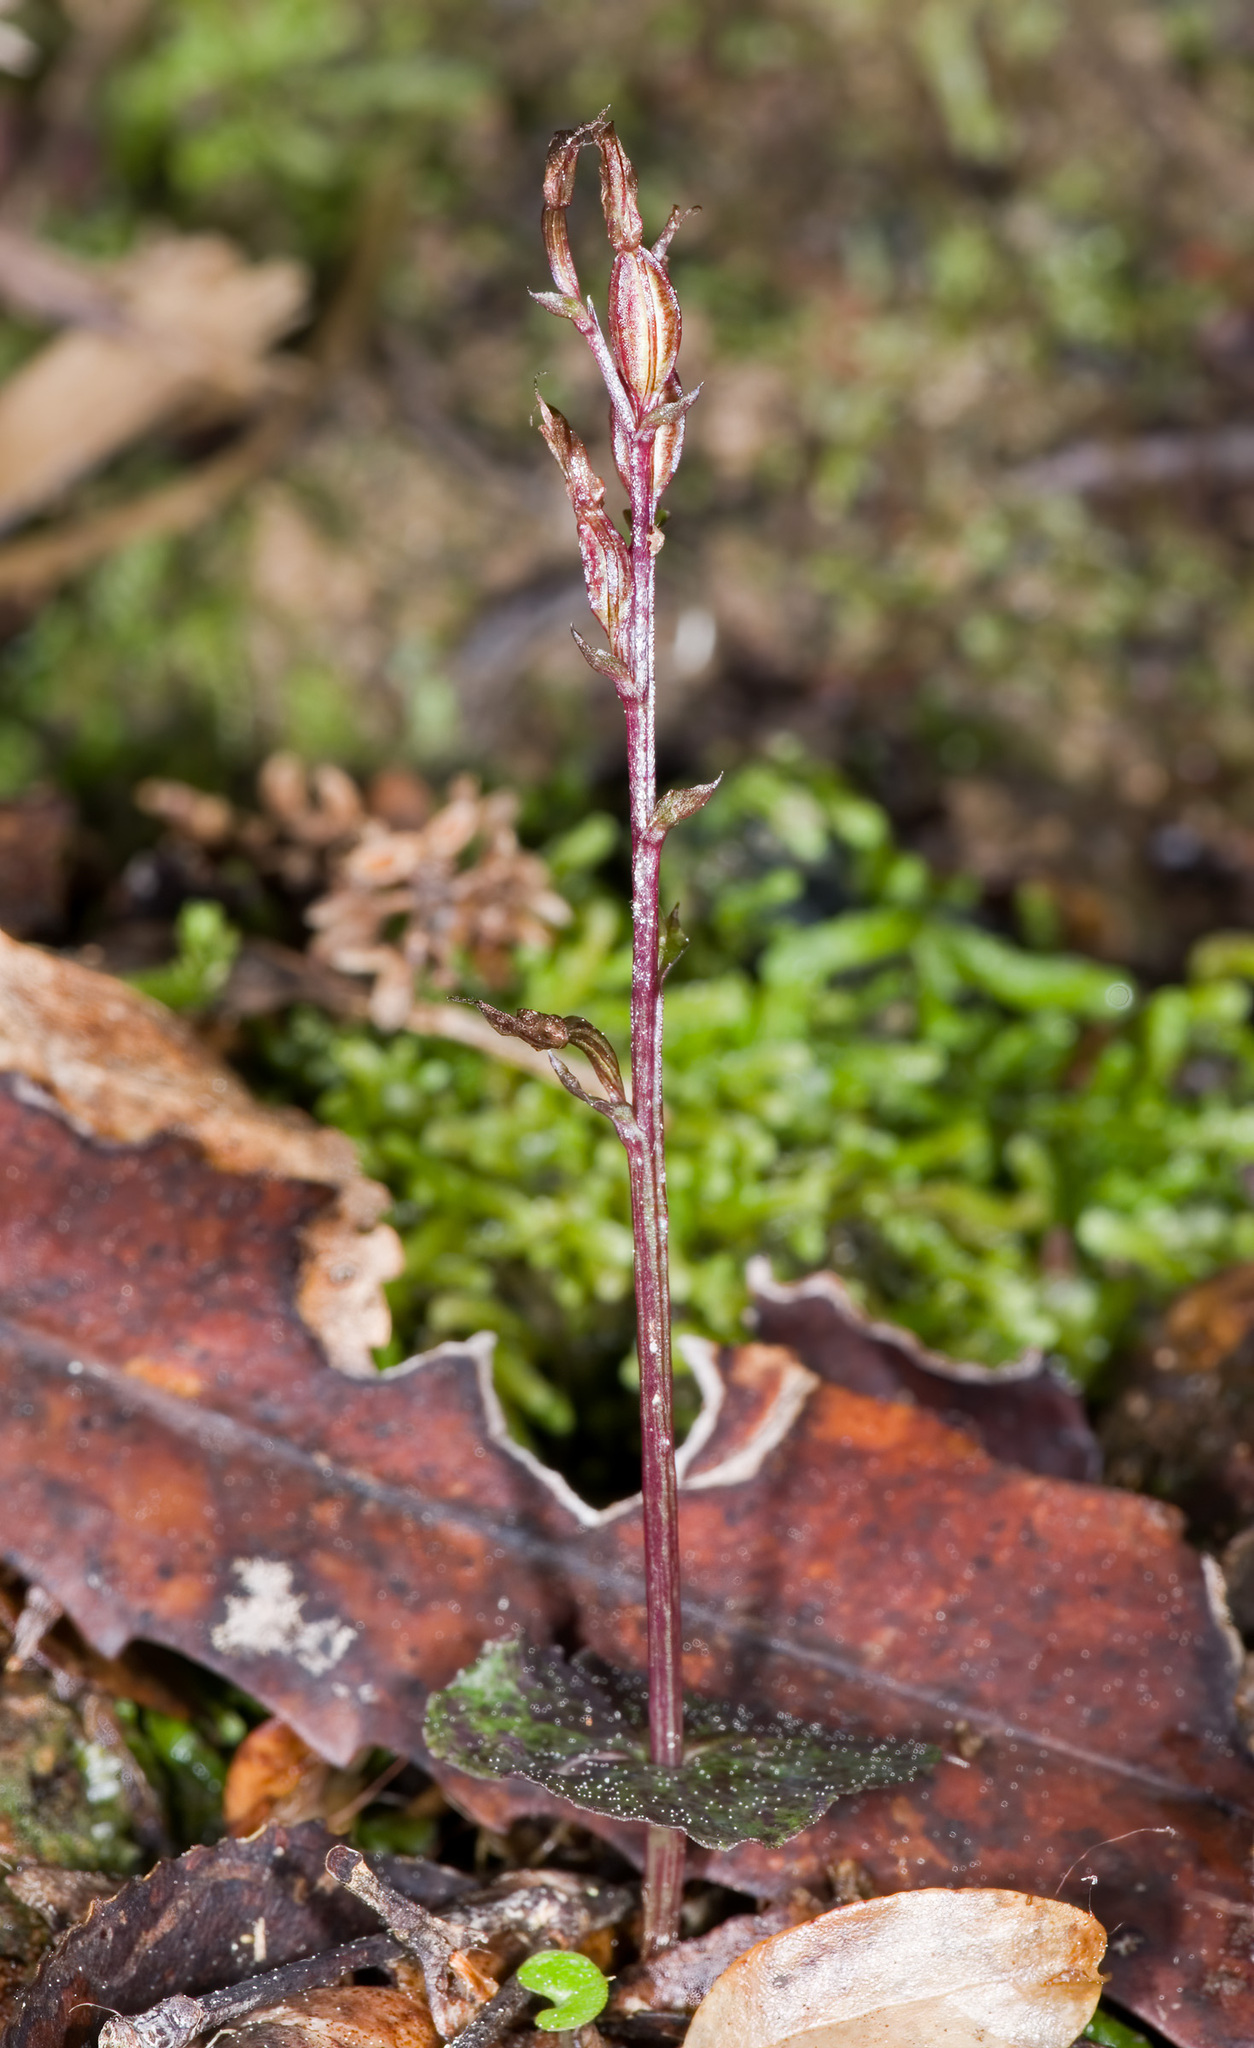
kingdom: Plantae
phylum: Tracheophyta
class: Liliopsida
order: Asparagales
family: Orchidaceae
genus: Acianthus
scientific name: Acianthus sinclairii
